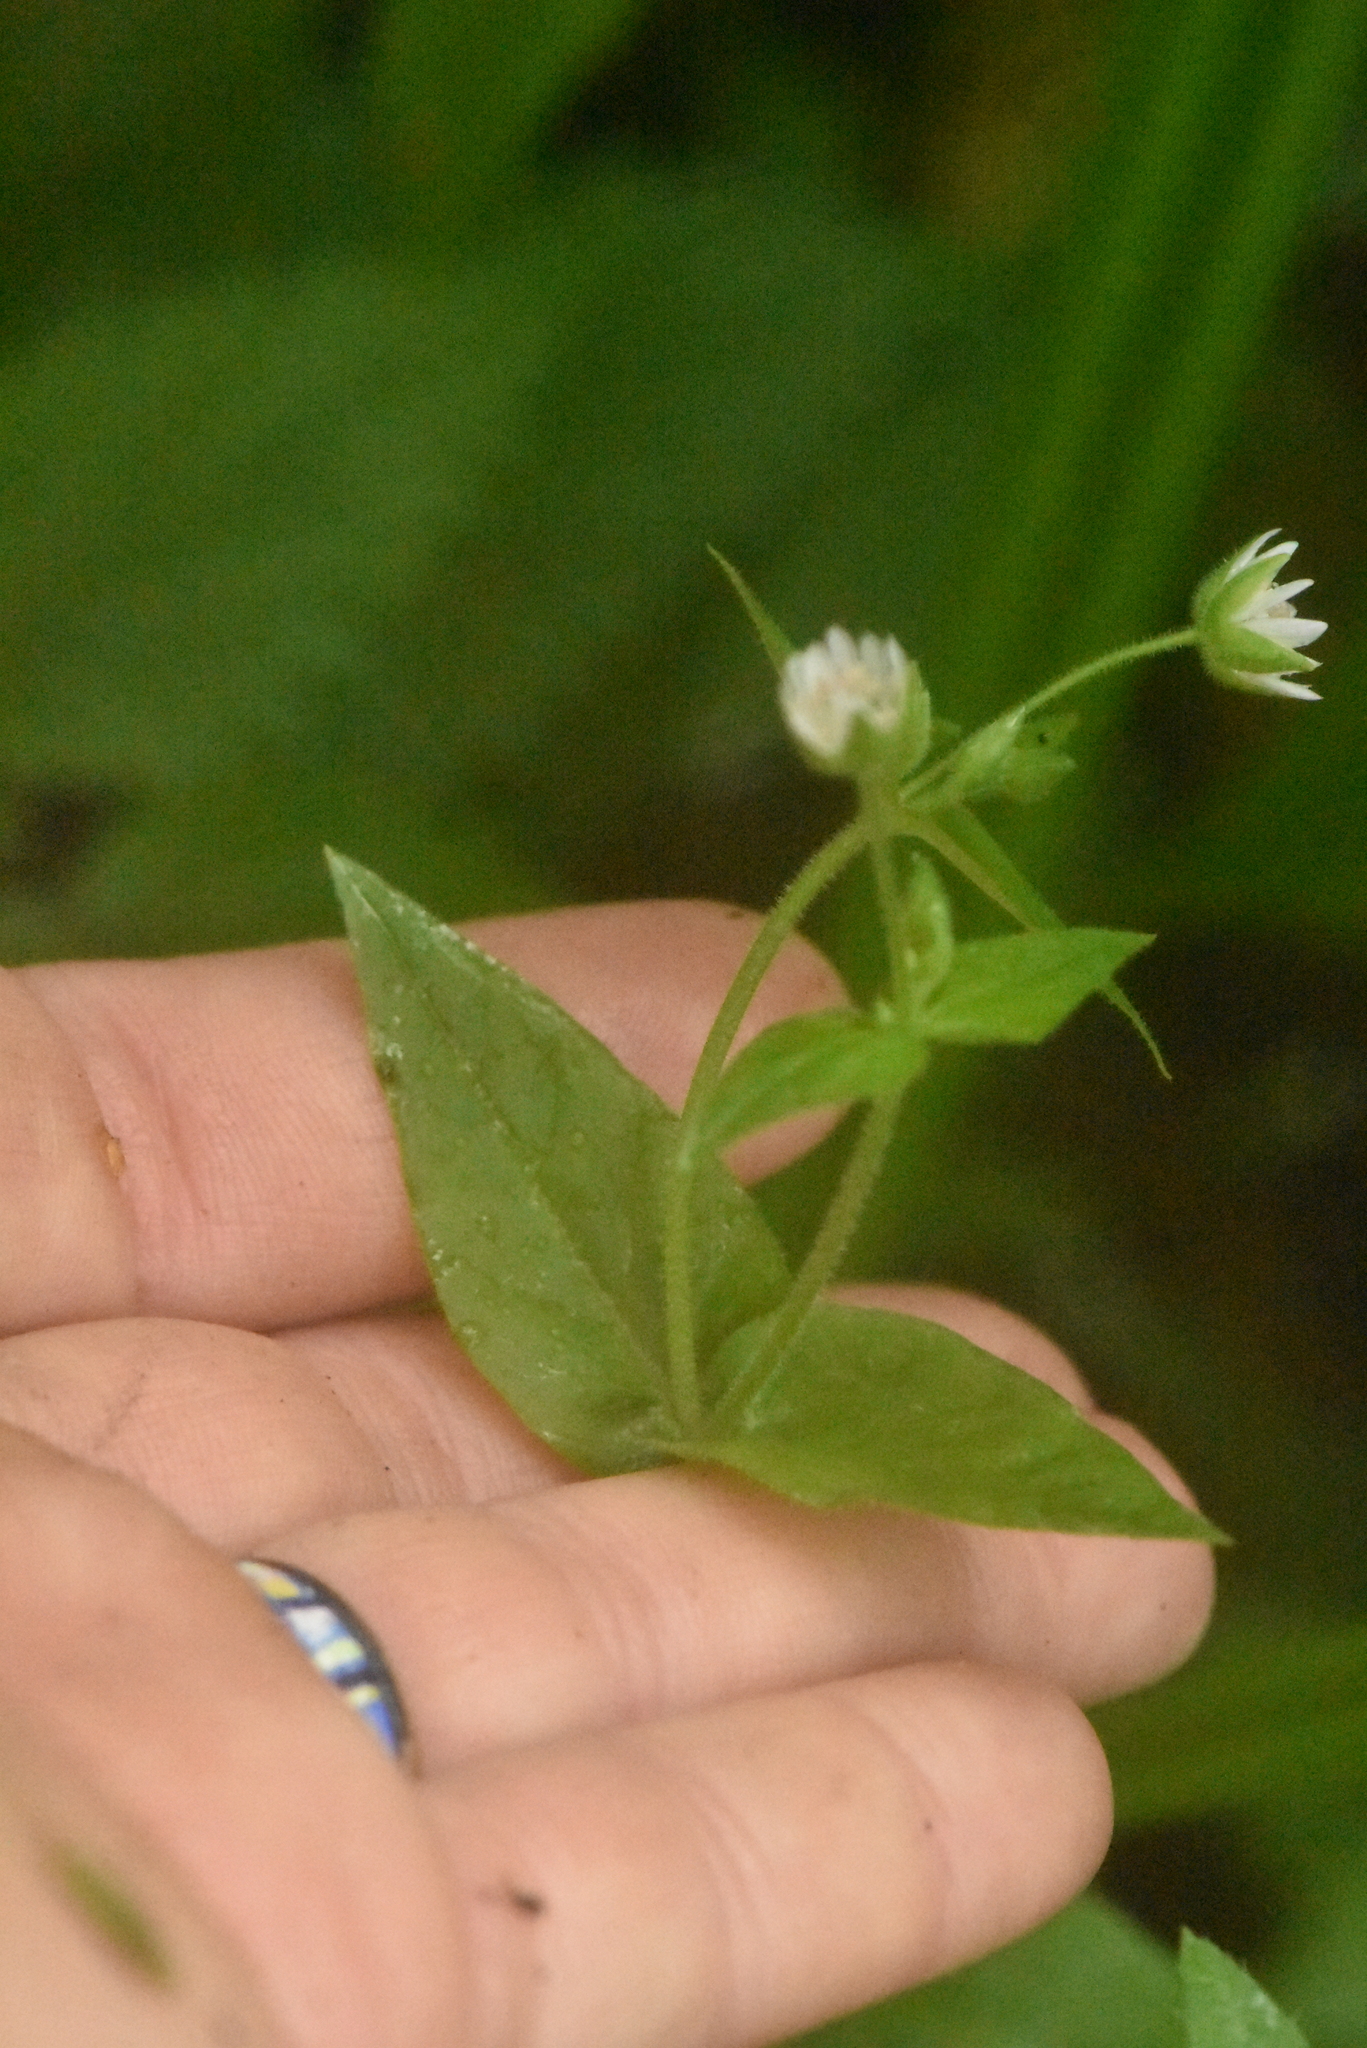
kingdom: Plantae
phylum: Tracheophyta
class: Magnoliopsida
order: Caryophyllales
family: Caryophyllaceae
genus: Stellaria
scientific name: Stellaria aquatica
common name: Water chickweed
